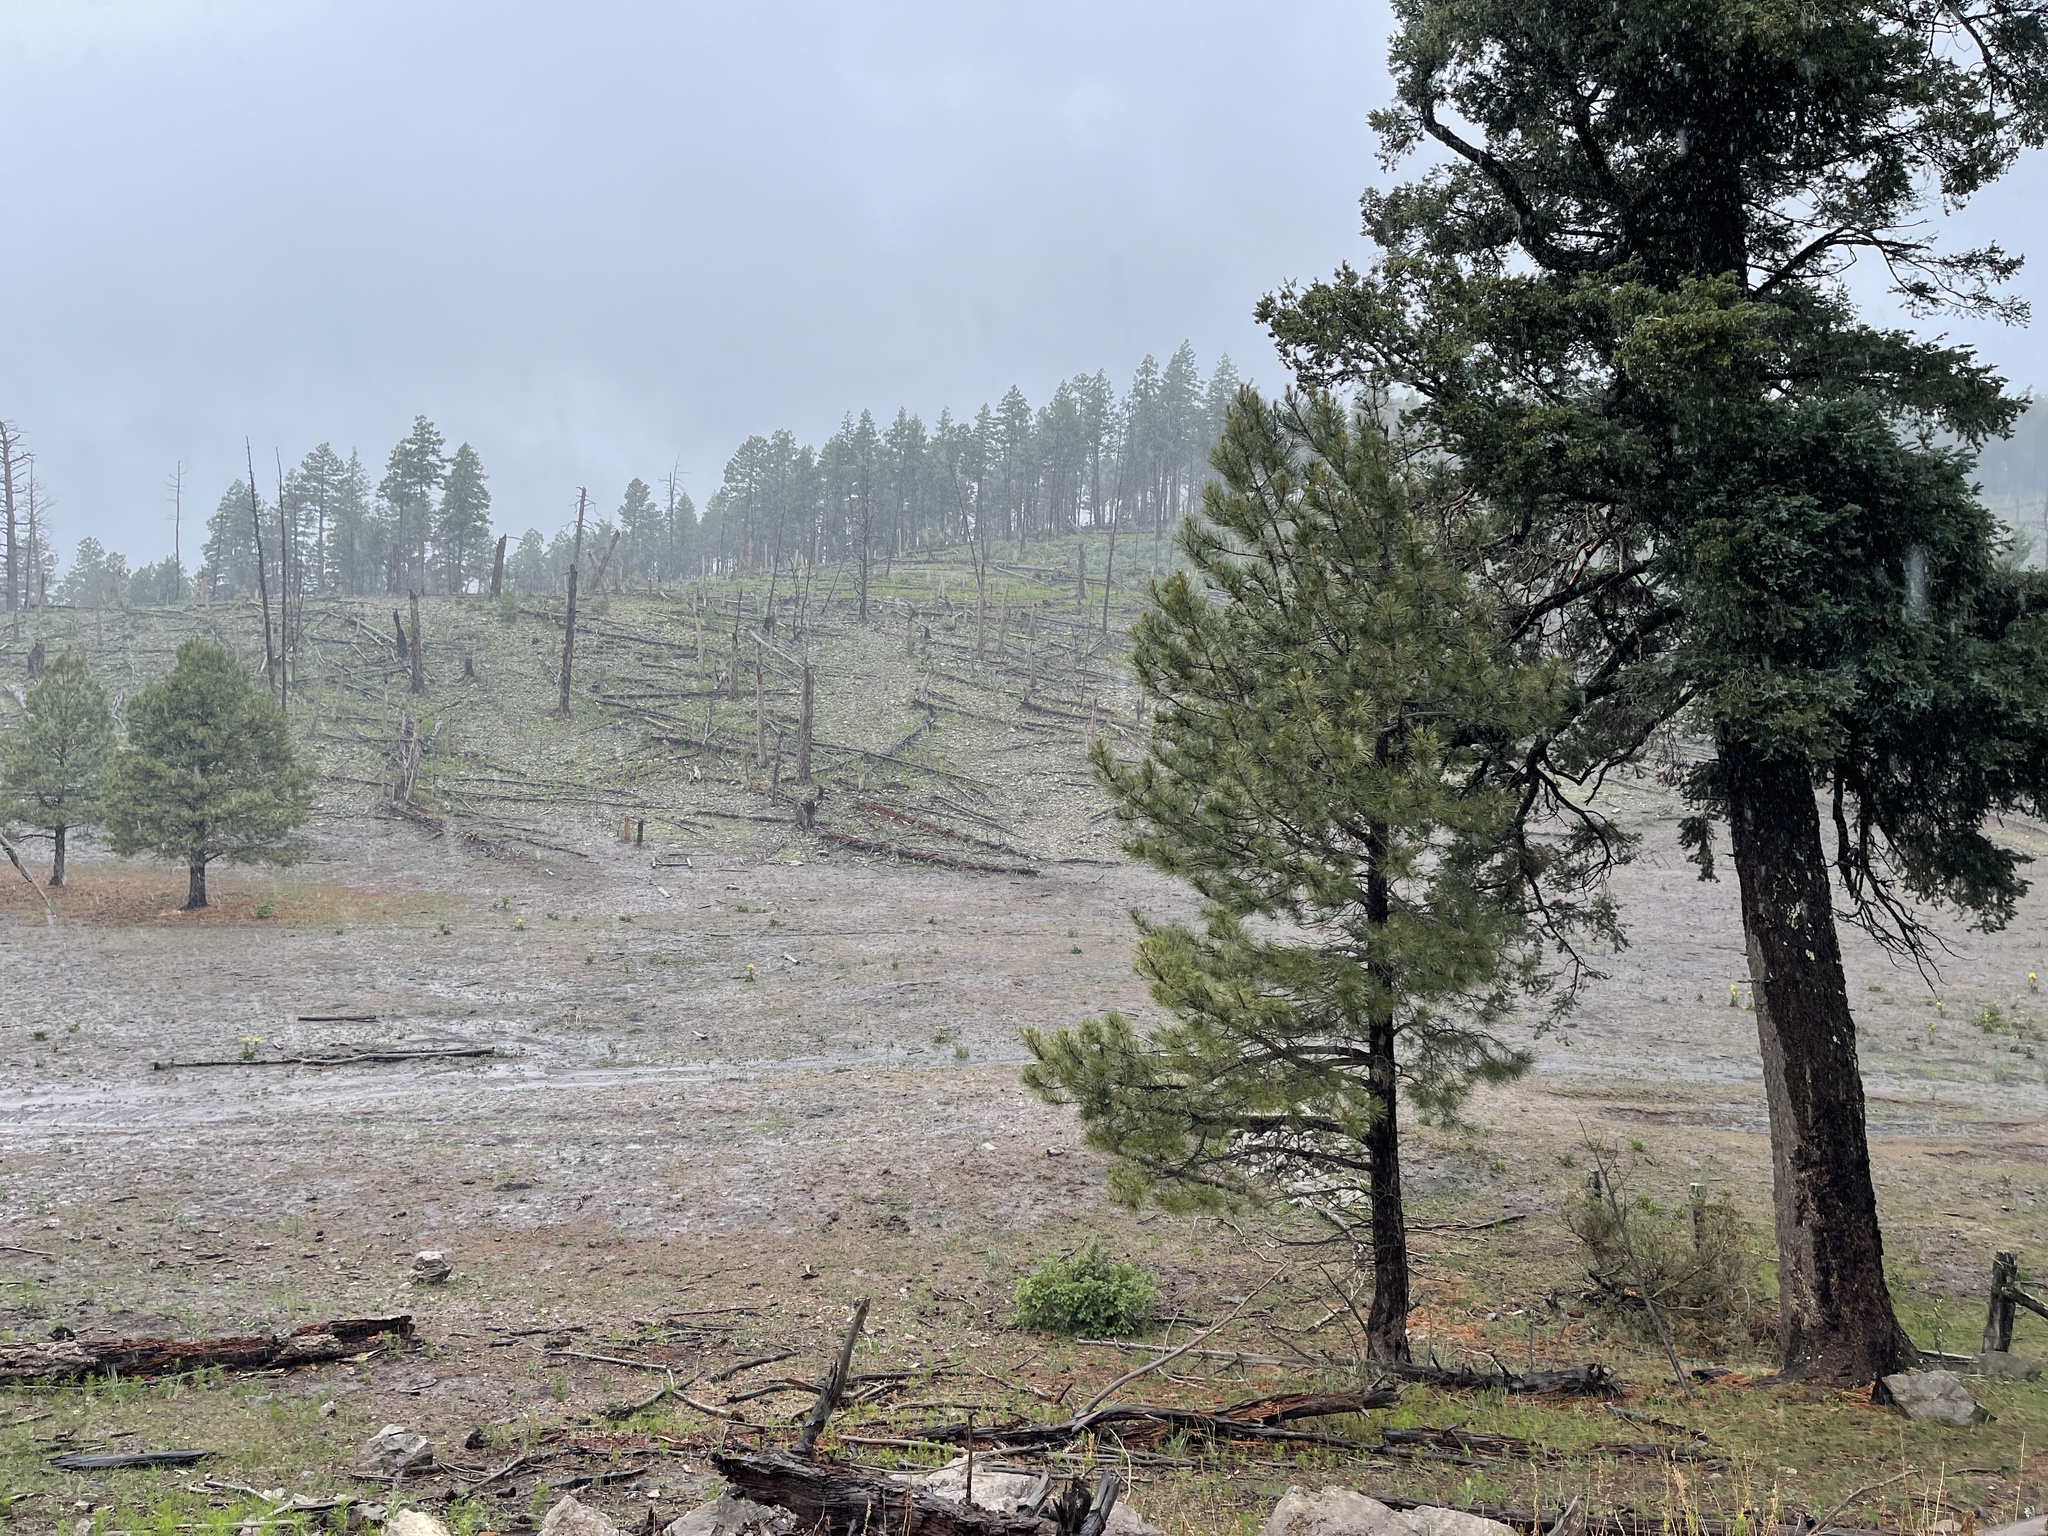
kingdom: Plantae
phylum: Tracheophyta
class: Pinopsida
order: Pinales
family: Pinaceae
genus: Pinus
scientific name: Pinus ponderosa
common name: Western yellow-pine
